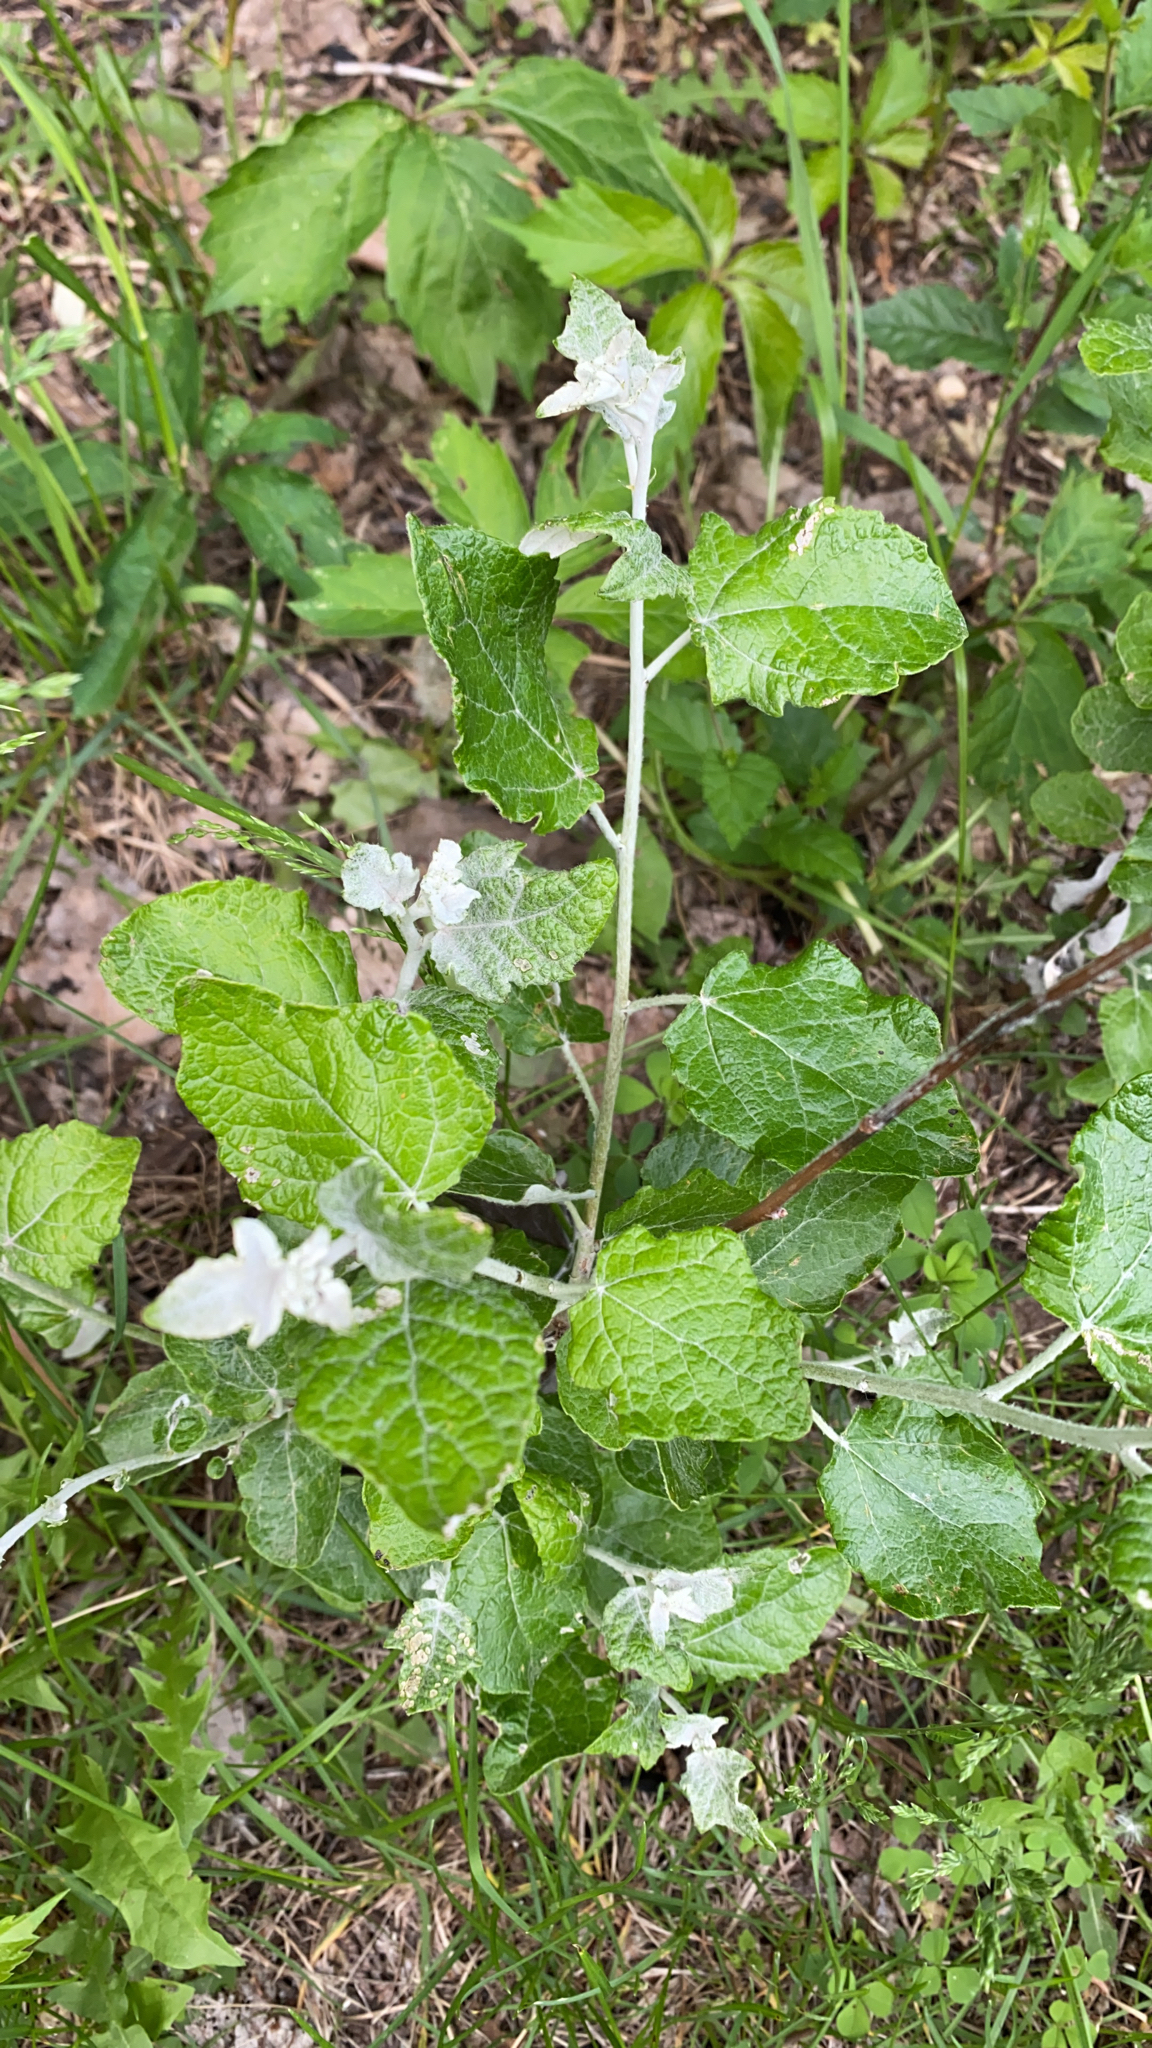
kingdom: Plantae
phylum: Tracheophyta
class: Magnoliopsida
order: Malpighiales
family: Salicaceae
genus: Populus
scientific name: Populus alba
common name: White poplar
